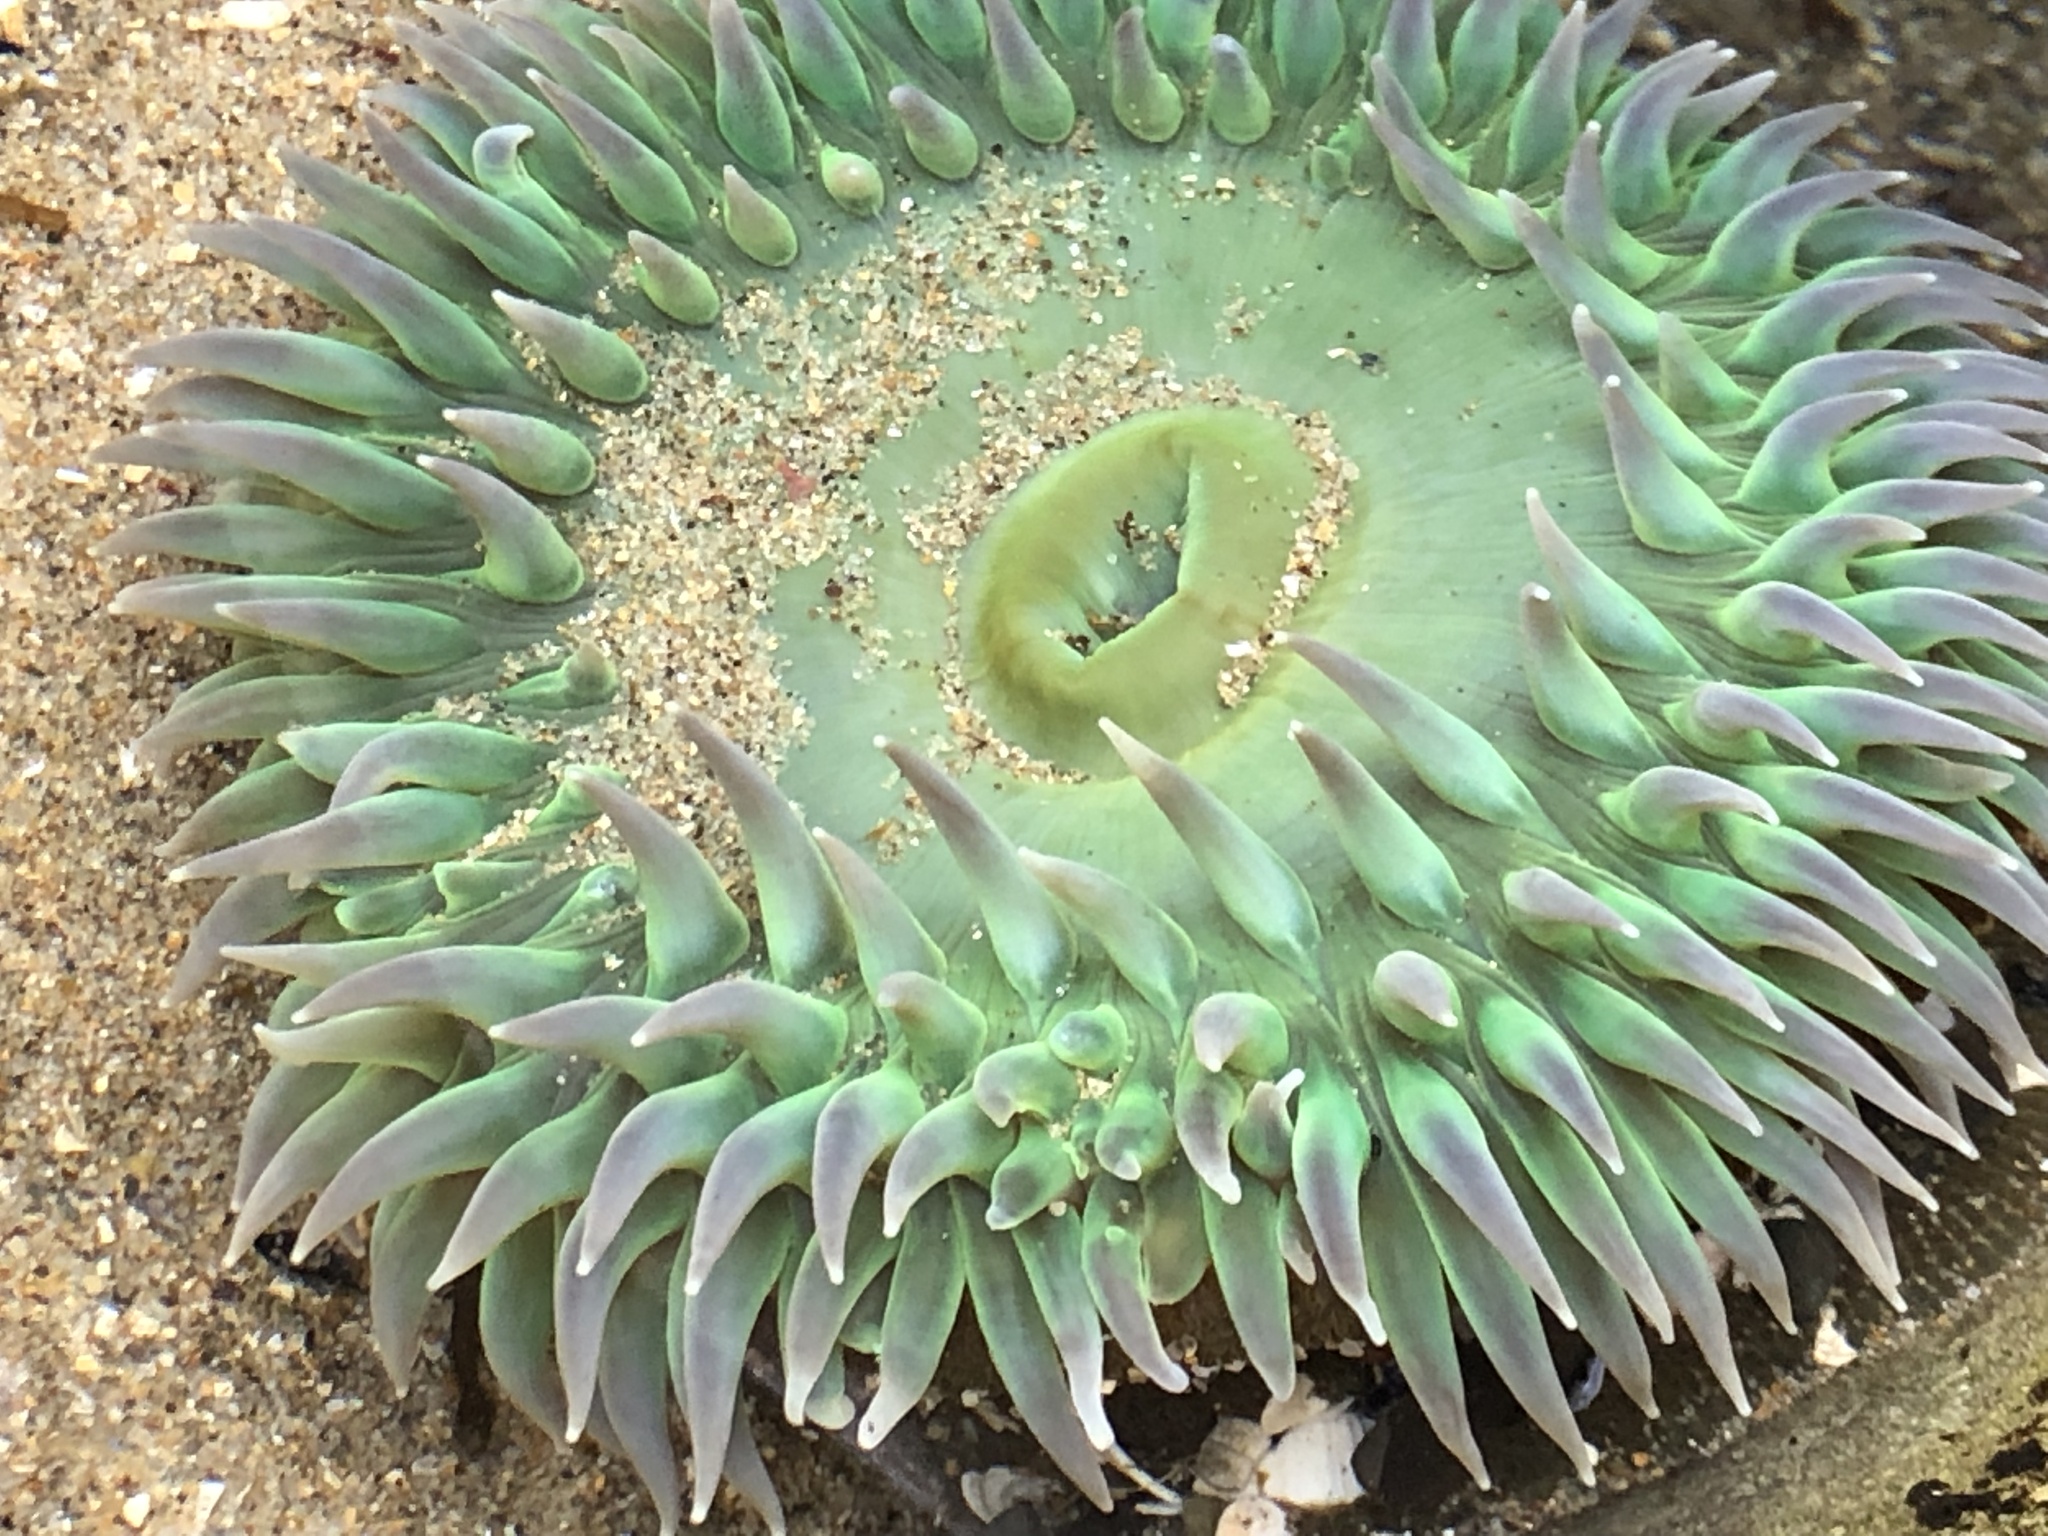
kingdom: Animalia
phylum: Cnidaria
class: Anthozoa
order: Actiniaria
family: Actiniidae
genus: Anthopleura
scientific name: Anthopleura xanthogrammica
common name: Giant green anemone
